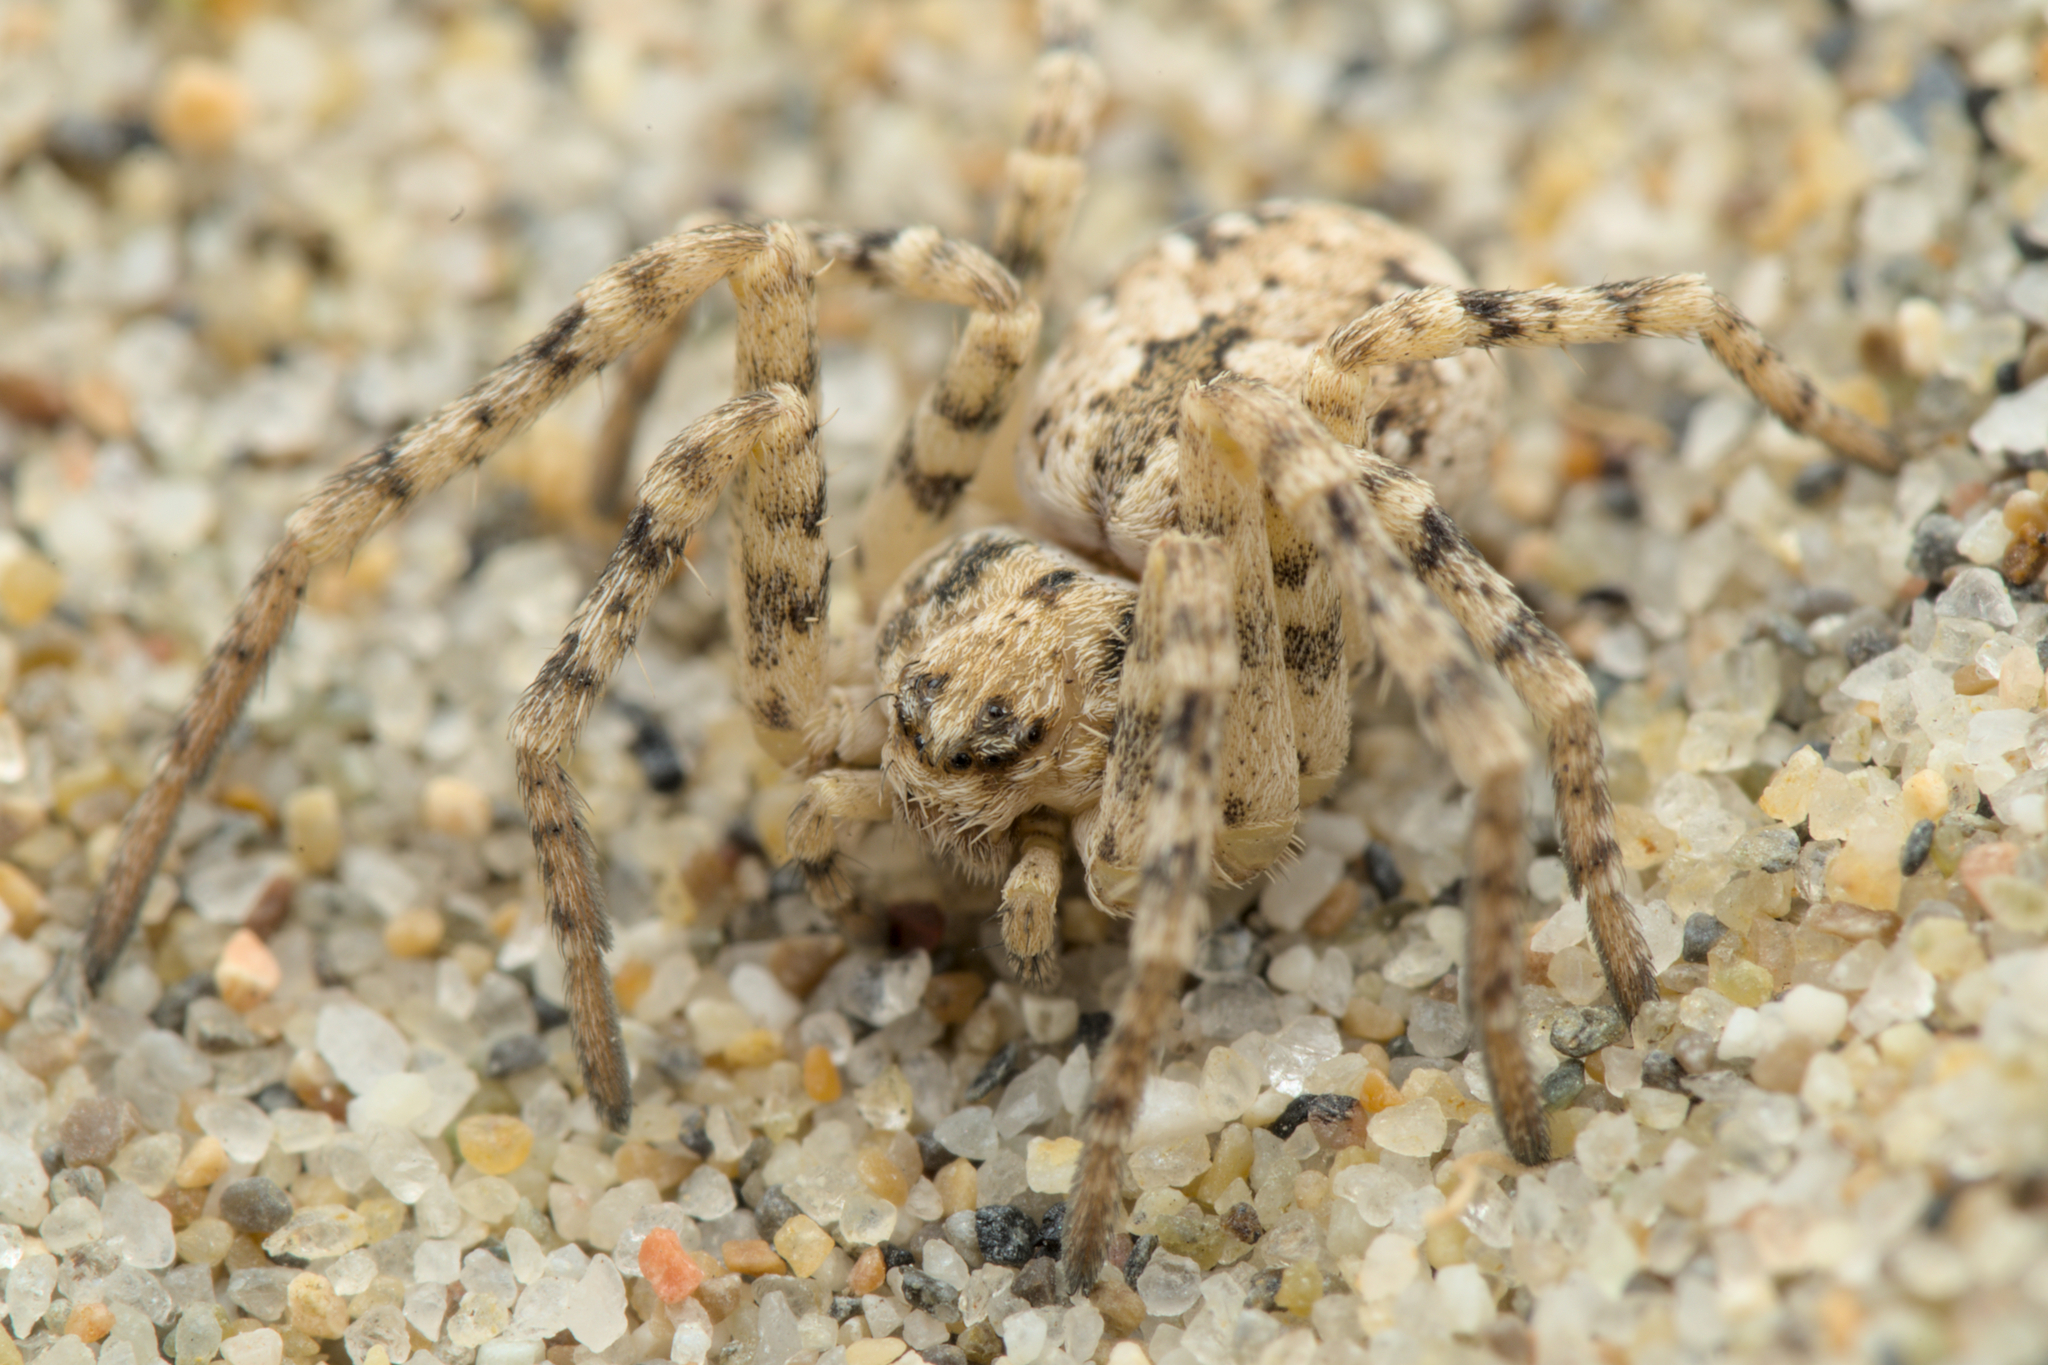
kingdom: Animalia
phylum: Arthropoda
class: Arachnida
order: Araneae
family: Philodromidae
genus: Rhysodromus
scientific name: Rhysodromus fallax
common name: Sand running-spider
